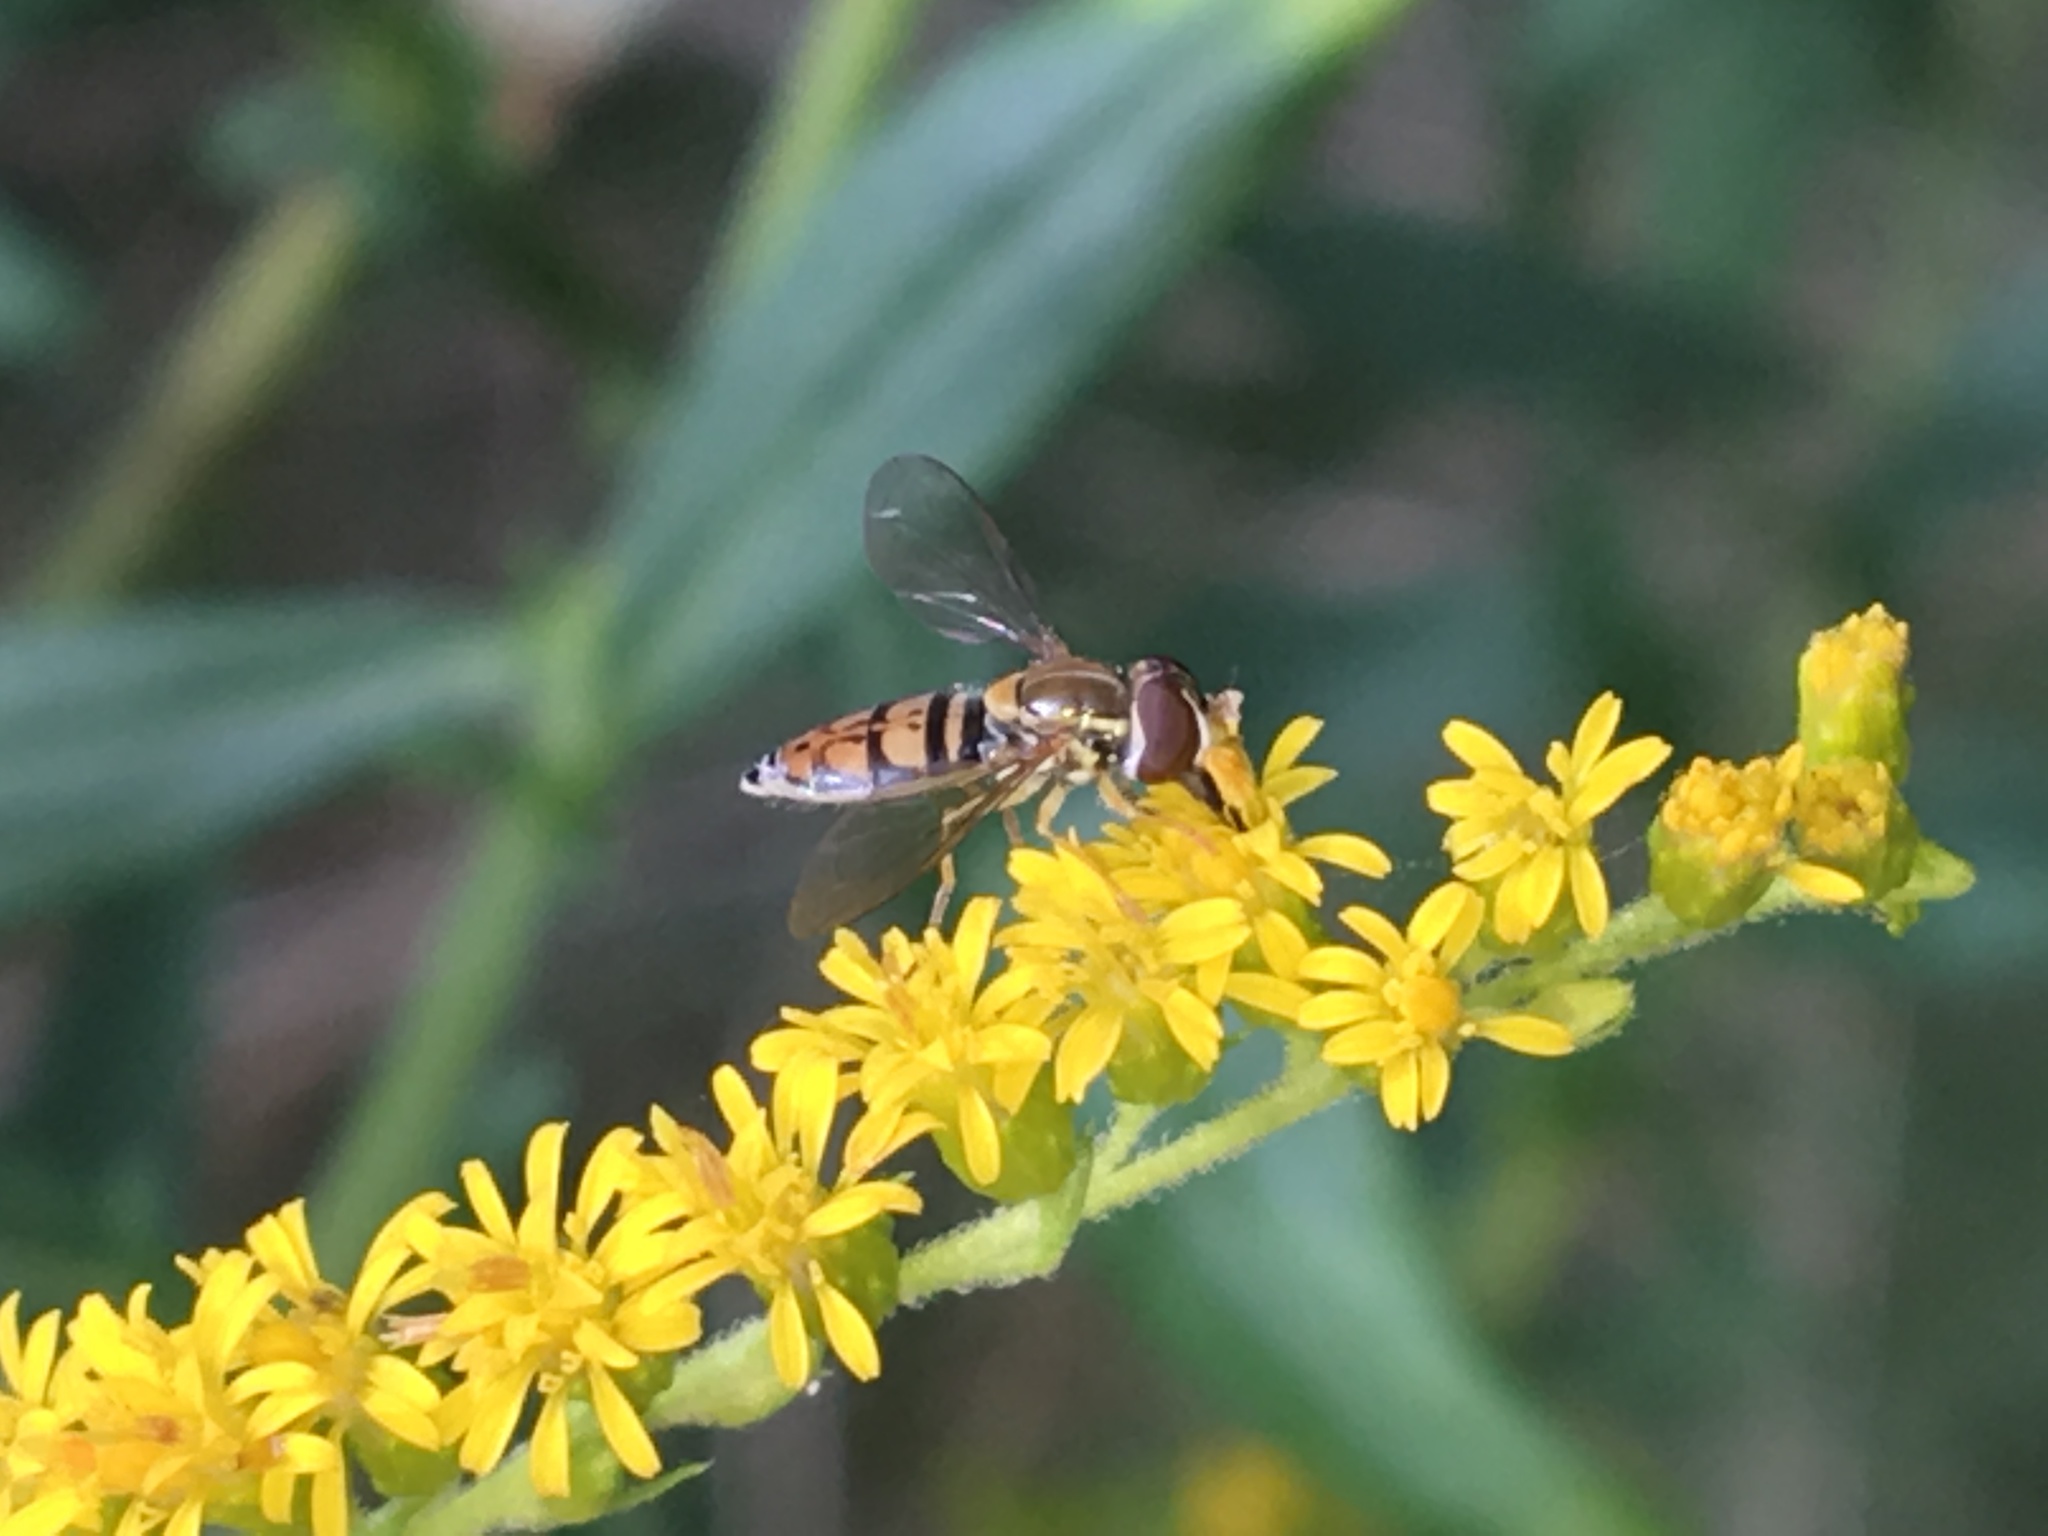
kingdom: Animalia
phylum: Arthropoda
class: Insecta
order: Diptera
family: Syrphidae
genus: Toxomerus
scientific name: Toxomerus marginatus
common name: Syrphid fly
